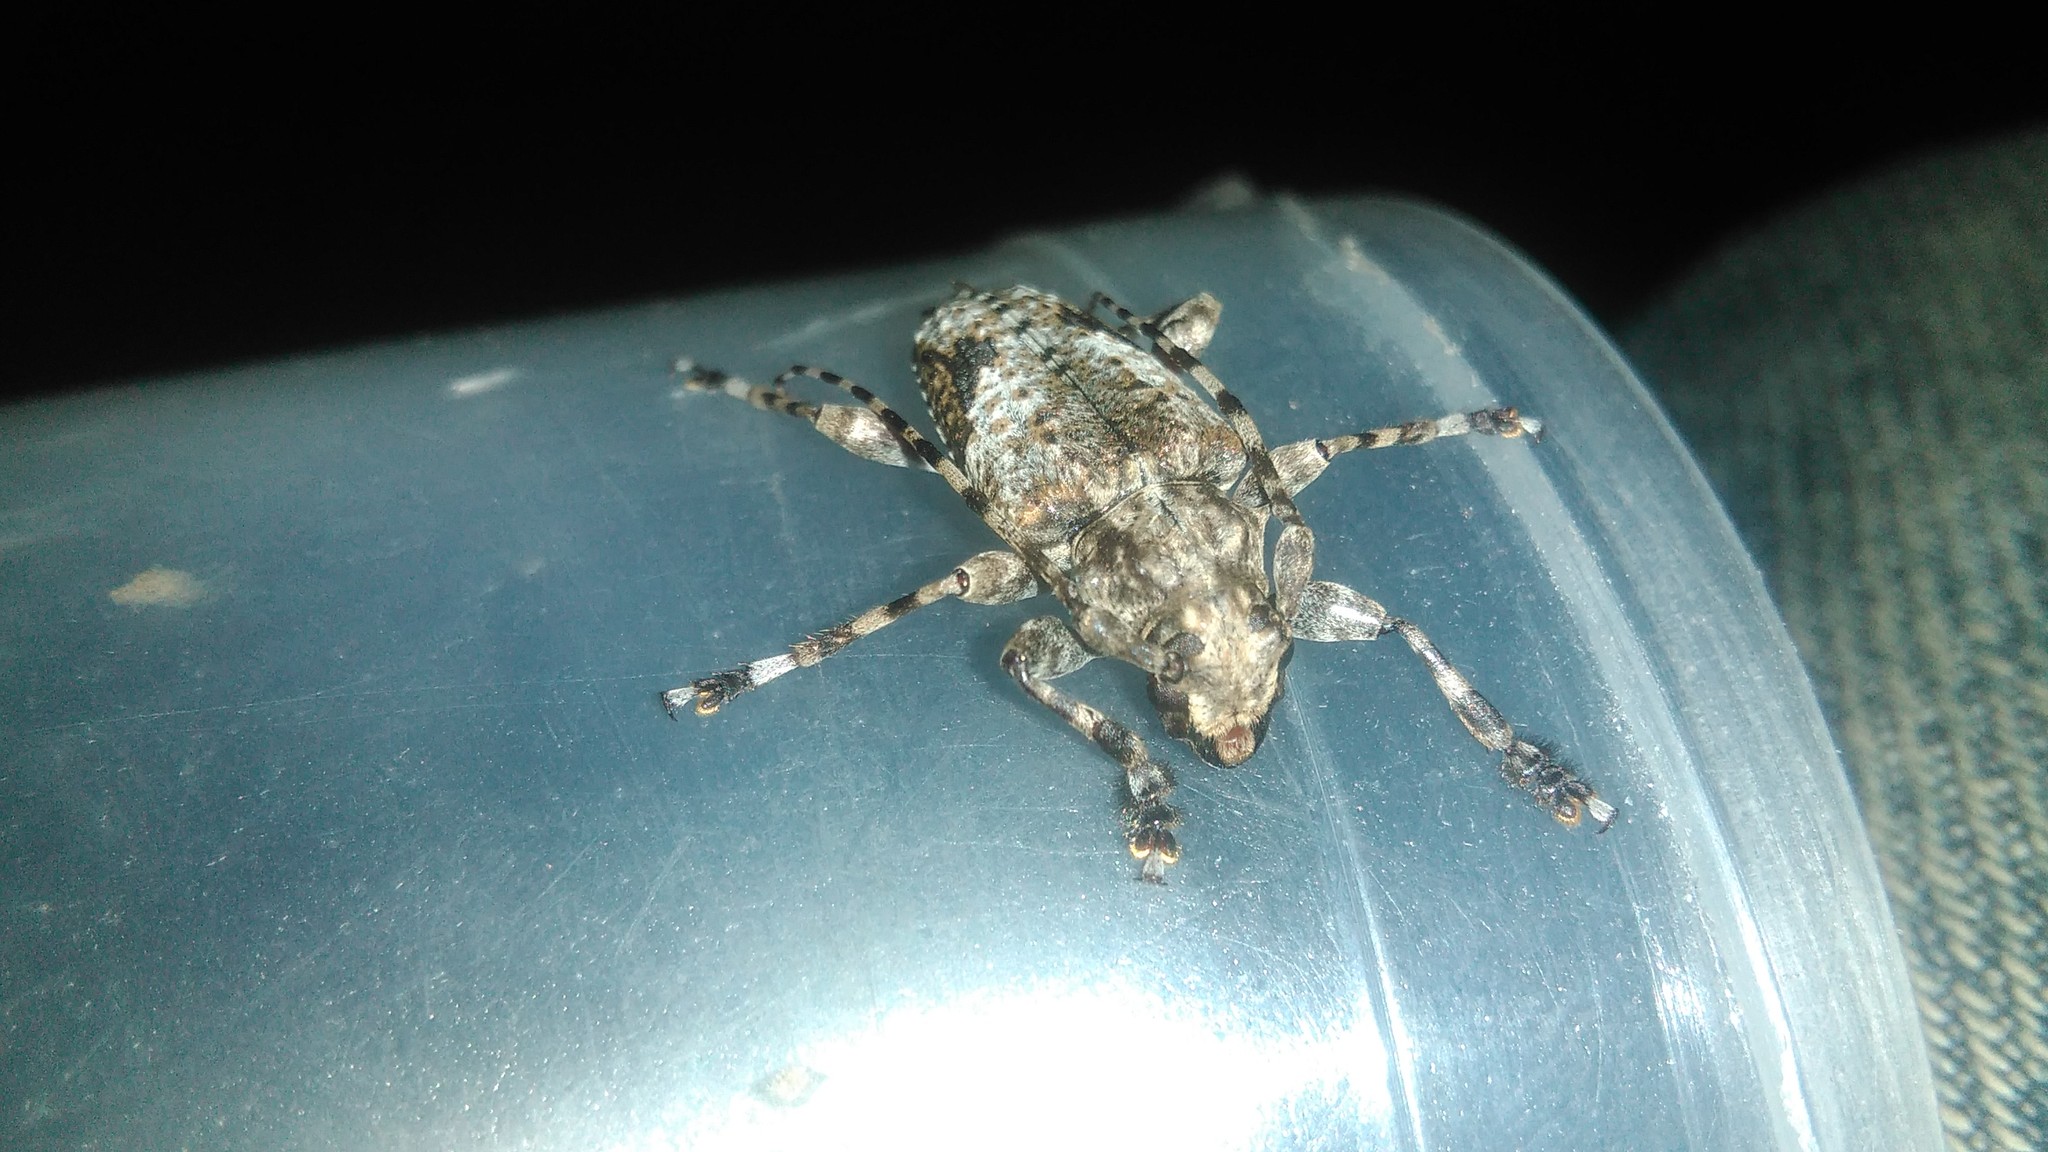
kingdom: Animalia
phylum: Arthropoda
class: Insecta
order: Coleoptera
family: Cerambycidae
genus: Psapharochrus
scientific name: Psapharochrus jaspideus
